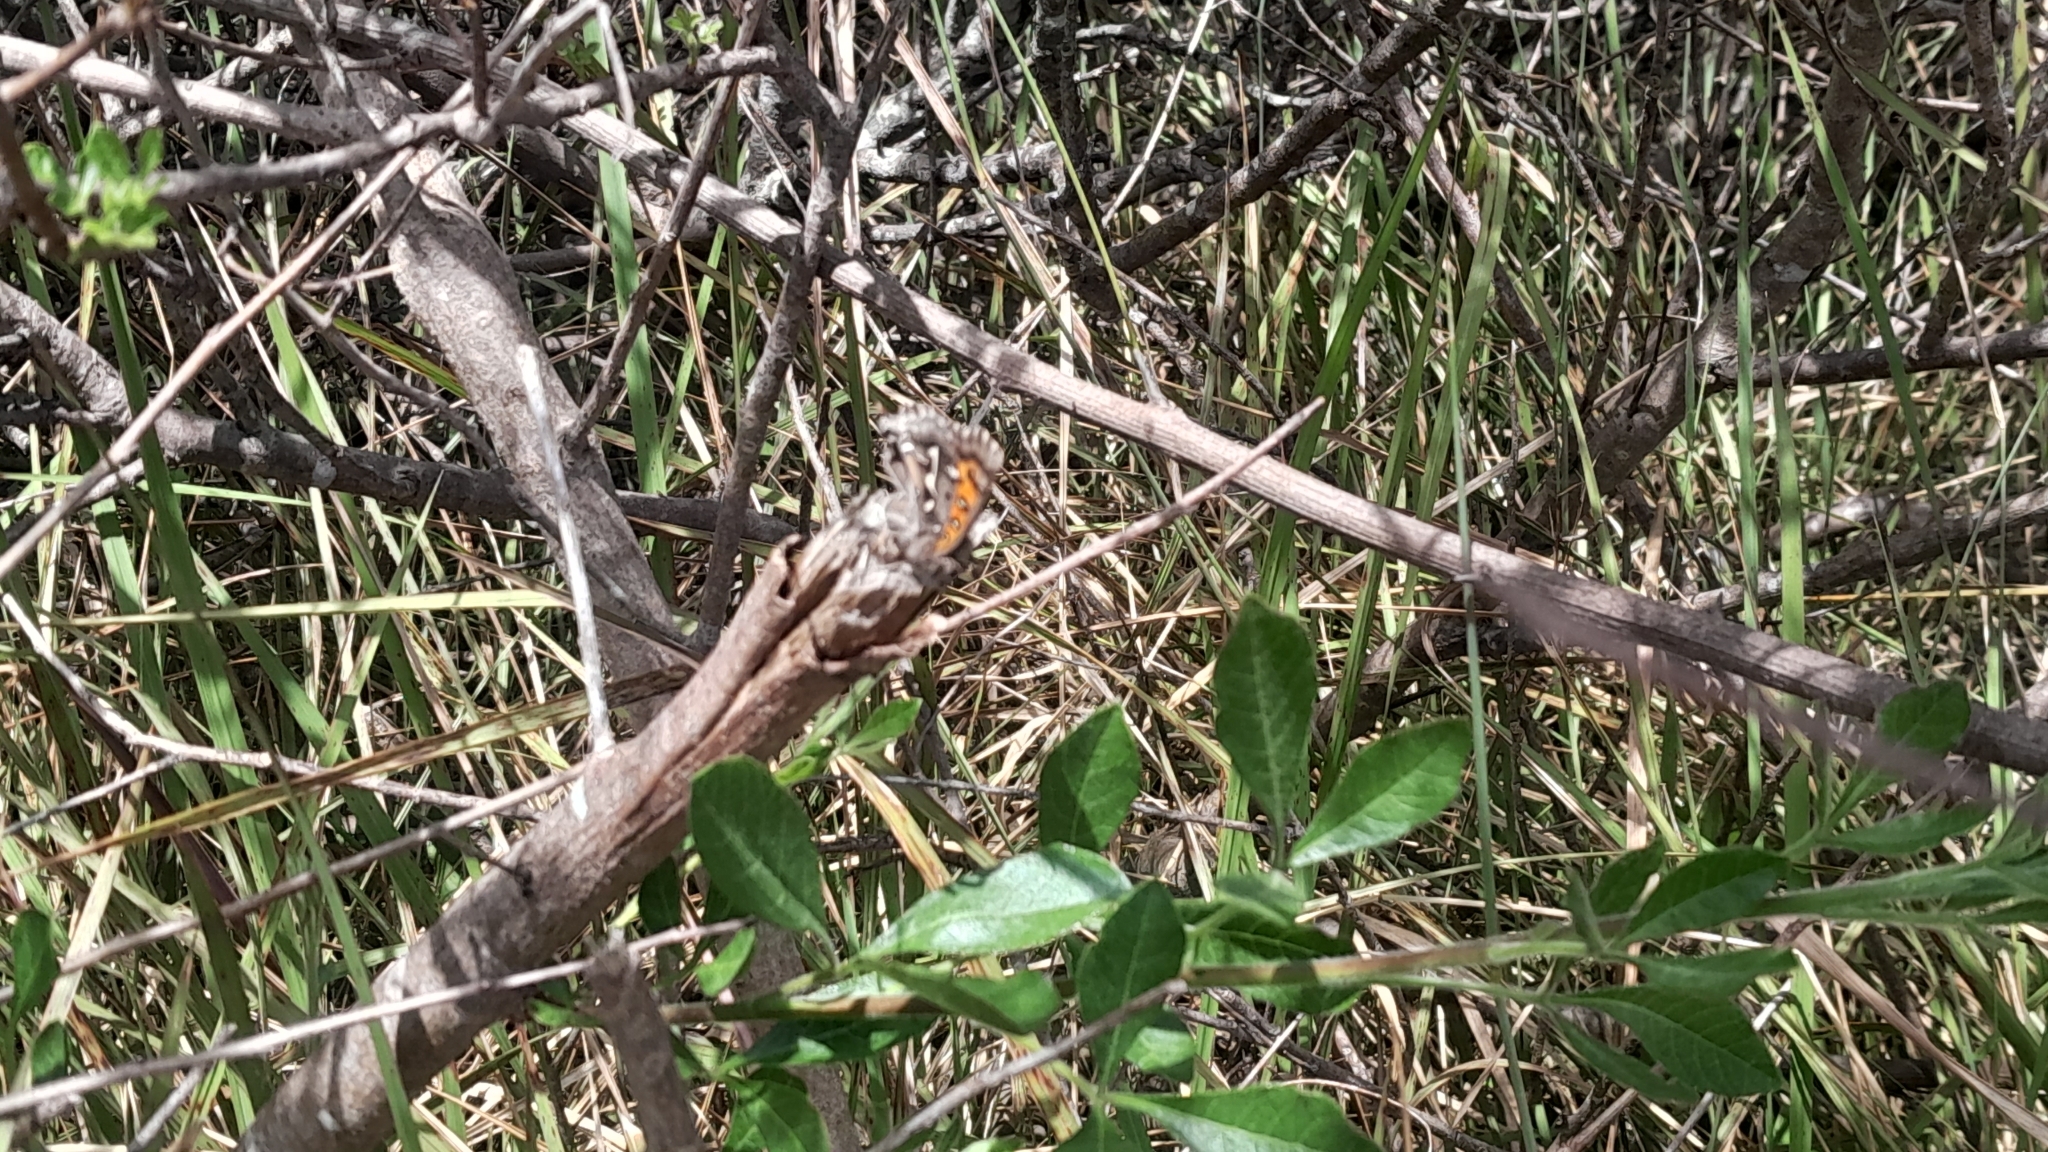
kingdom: Animalia
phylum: Arthropoda
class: Insecta
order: Lepidoptera
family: Lycaenidae
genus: Phasis
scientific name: Phasis thero
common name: Silver arrowhead
